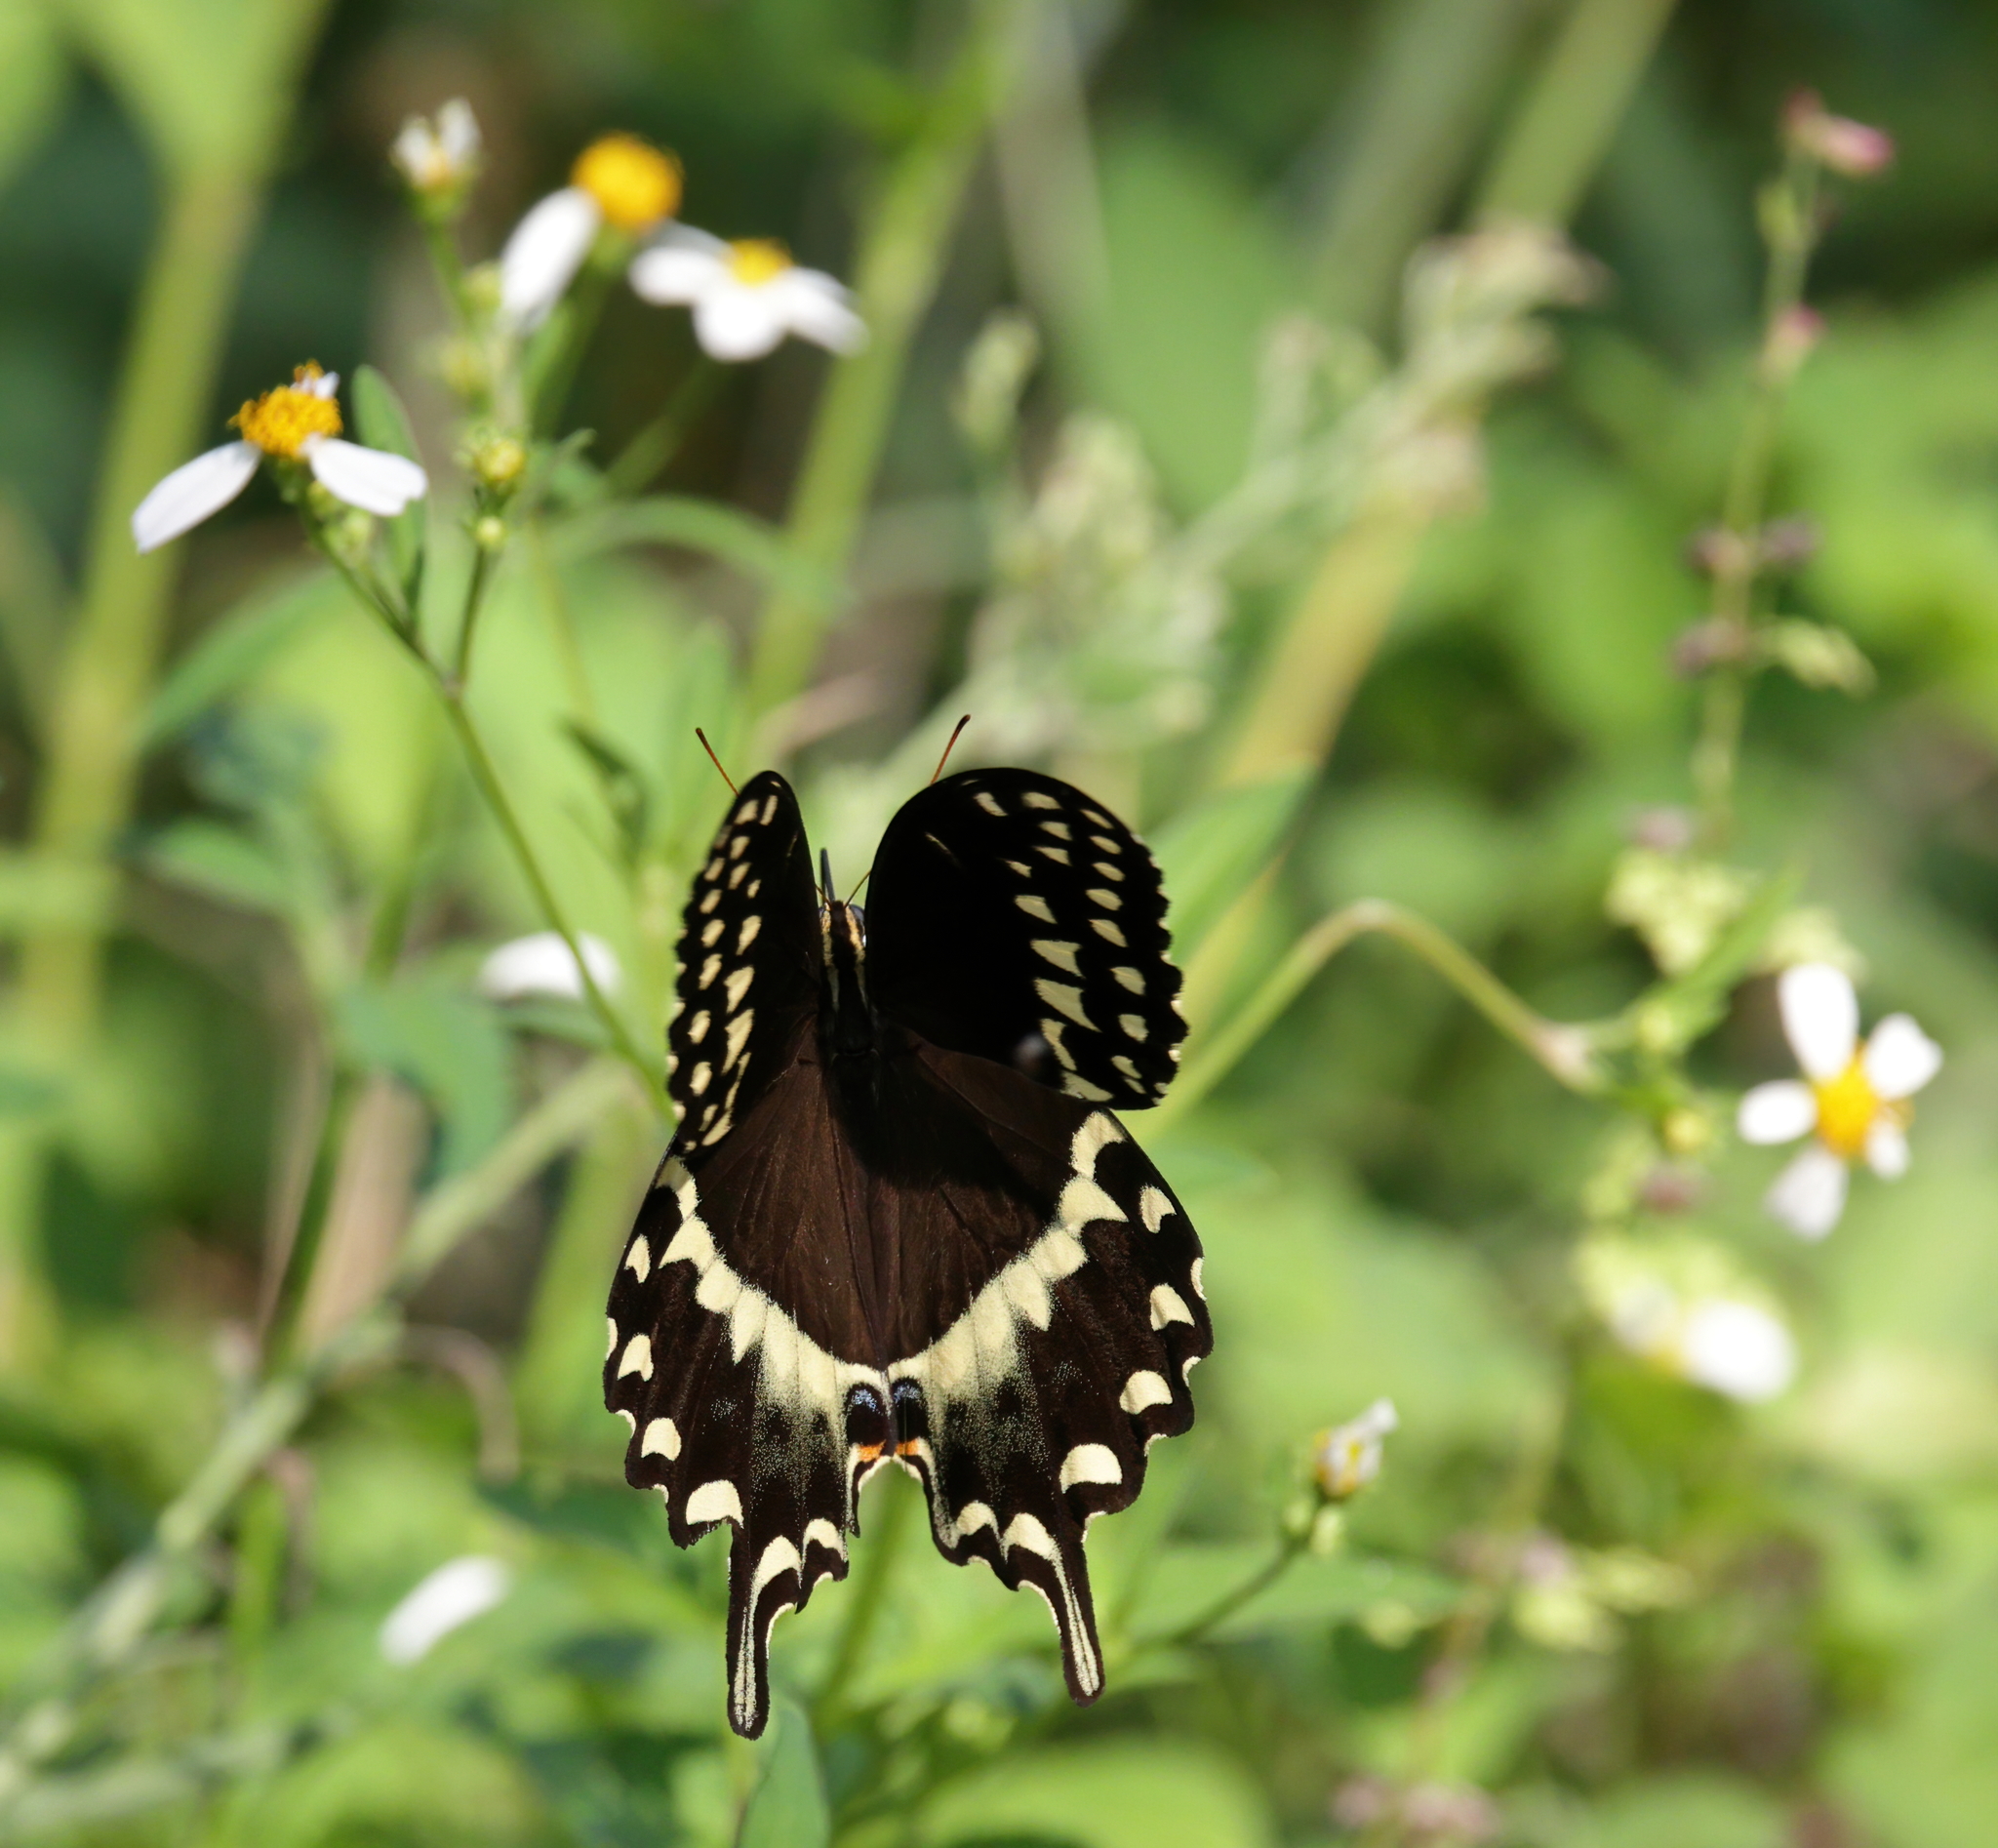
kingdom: Animalia
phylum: Arthropoda
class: Insecta
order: Lepidoptera
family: Papilionidae
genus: Papilio
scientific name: Papilio palamedes
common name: Palamedes swallowtail
